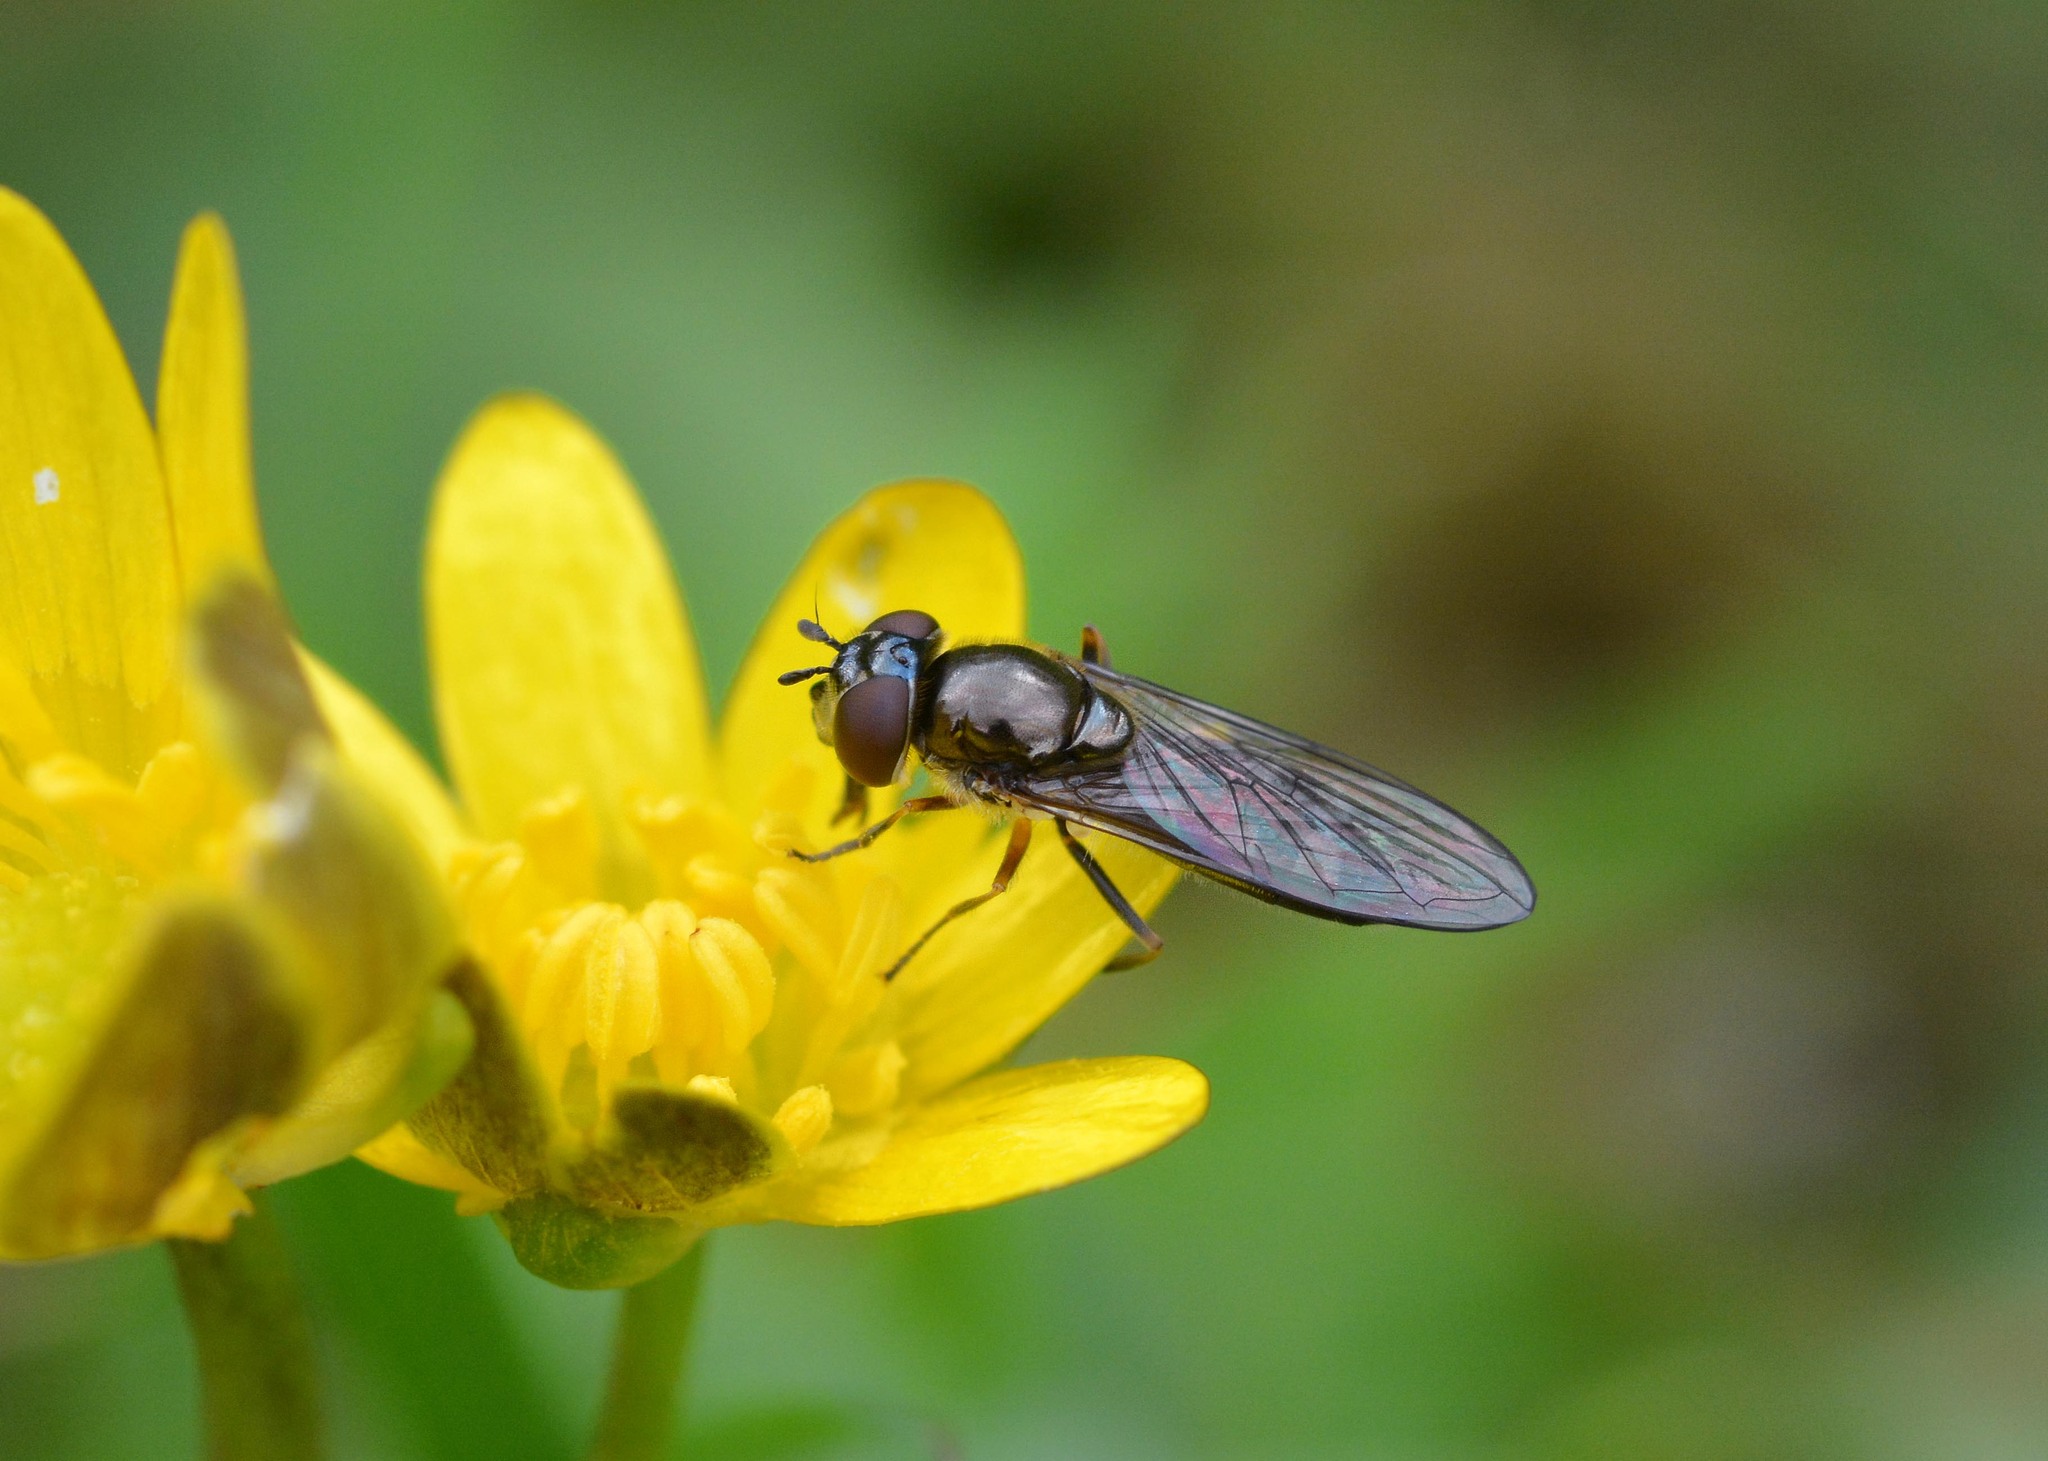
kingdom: Animalia
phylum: Arthropoda
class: Insecta
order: Diptera
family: Syrphidae
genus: Platycheirus
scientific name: Platycheirus albimanus
